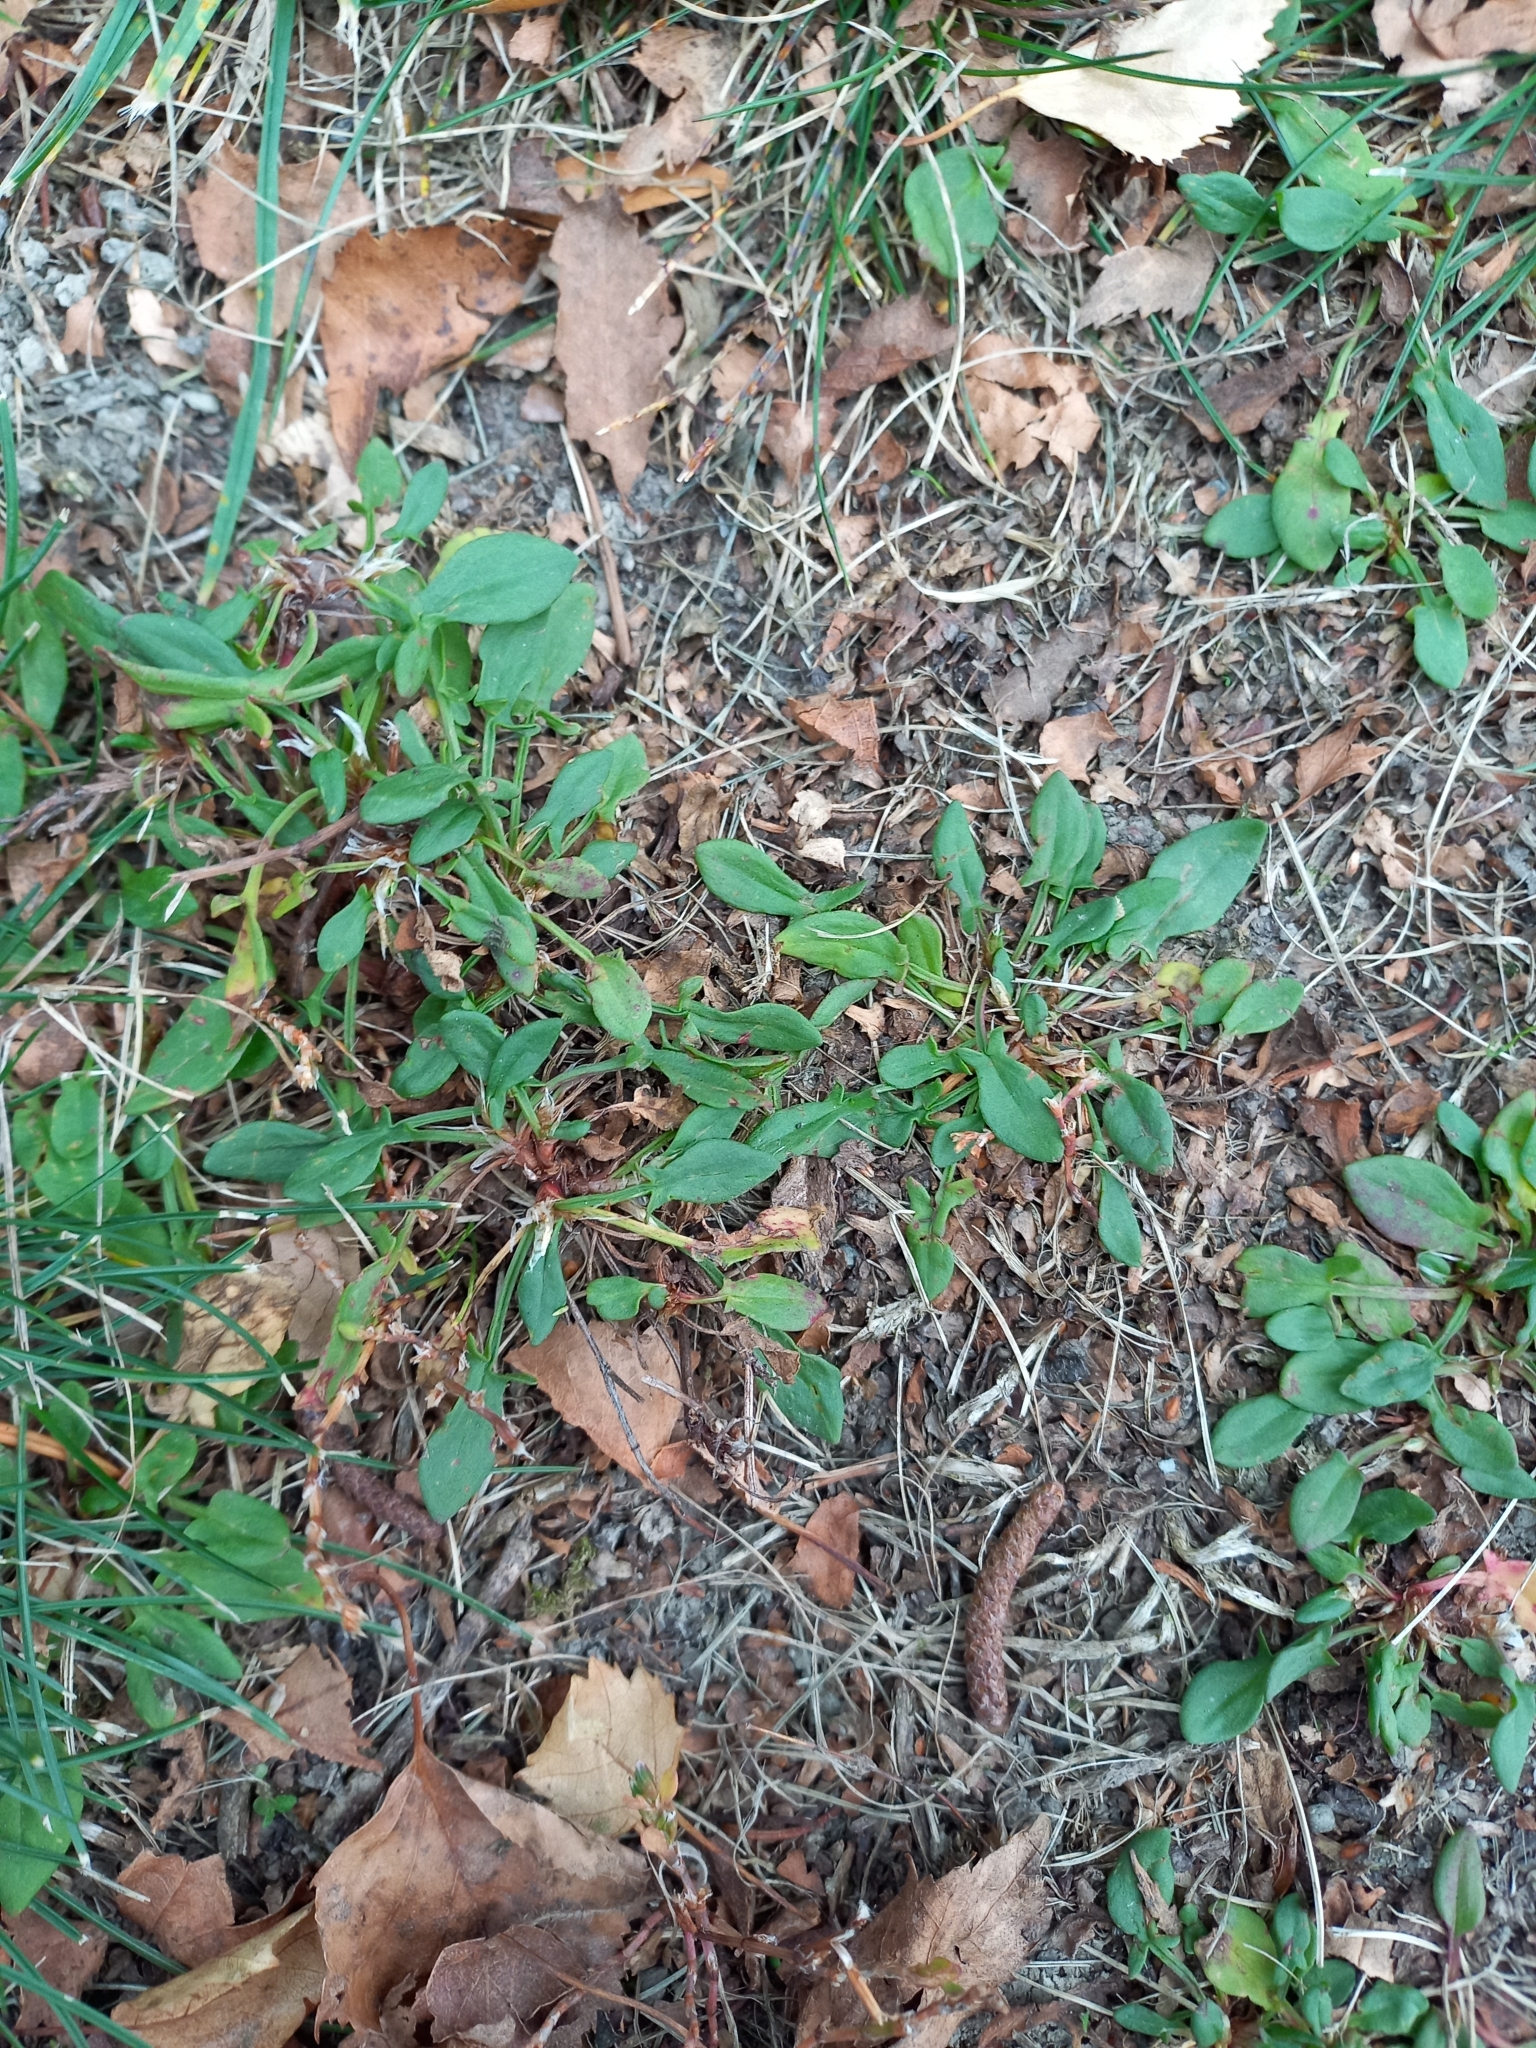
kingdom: Plantae
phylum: Tracheophyta
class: Magnoliopsida
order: Caryophyllales
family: Polygonaceae
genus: Rumex
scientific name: Rumex acetosella
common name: Common sheep sorrel
